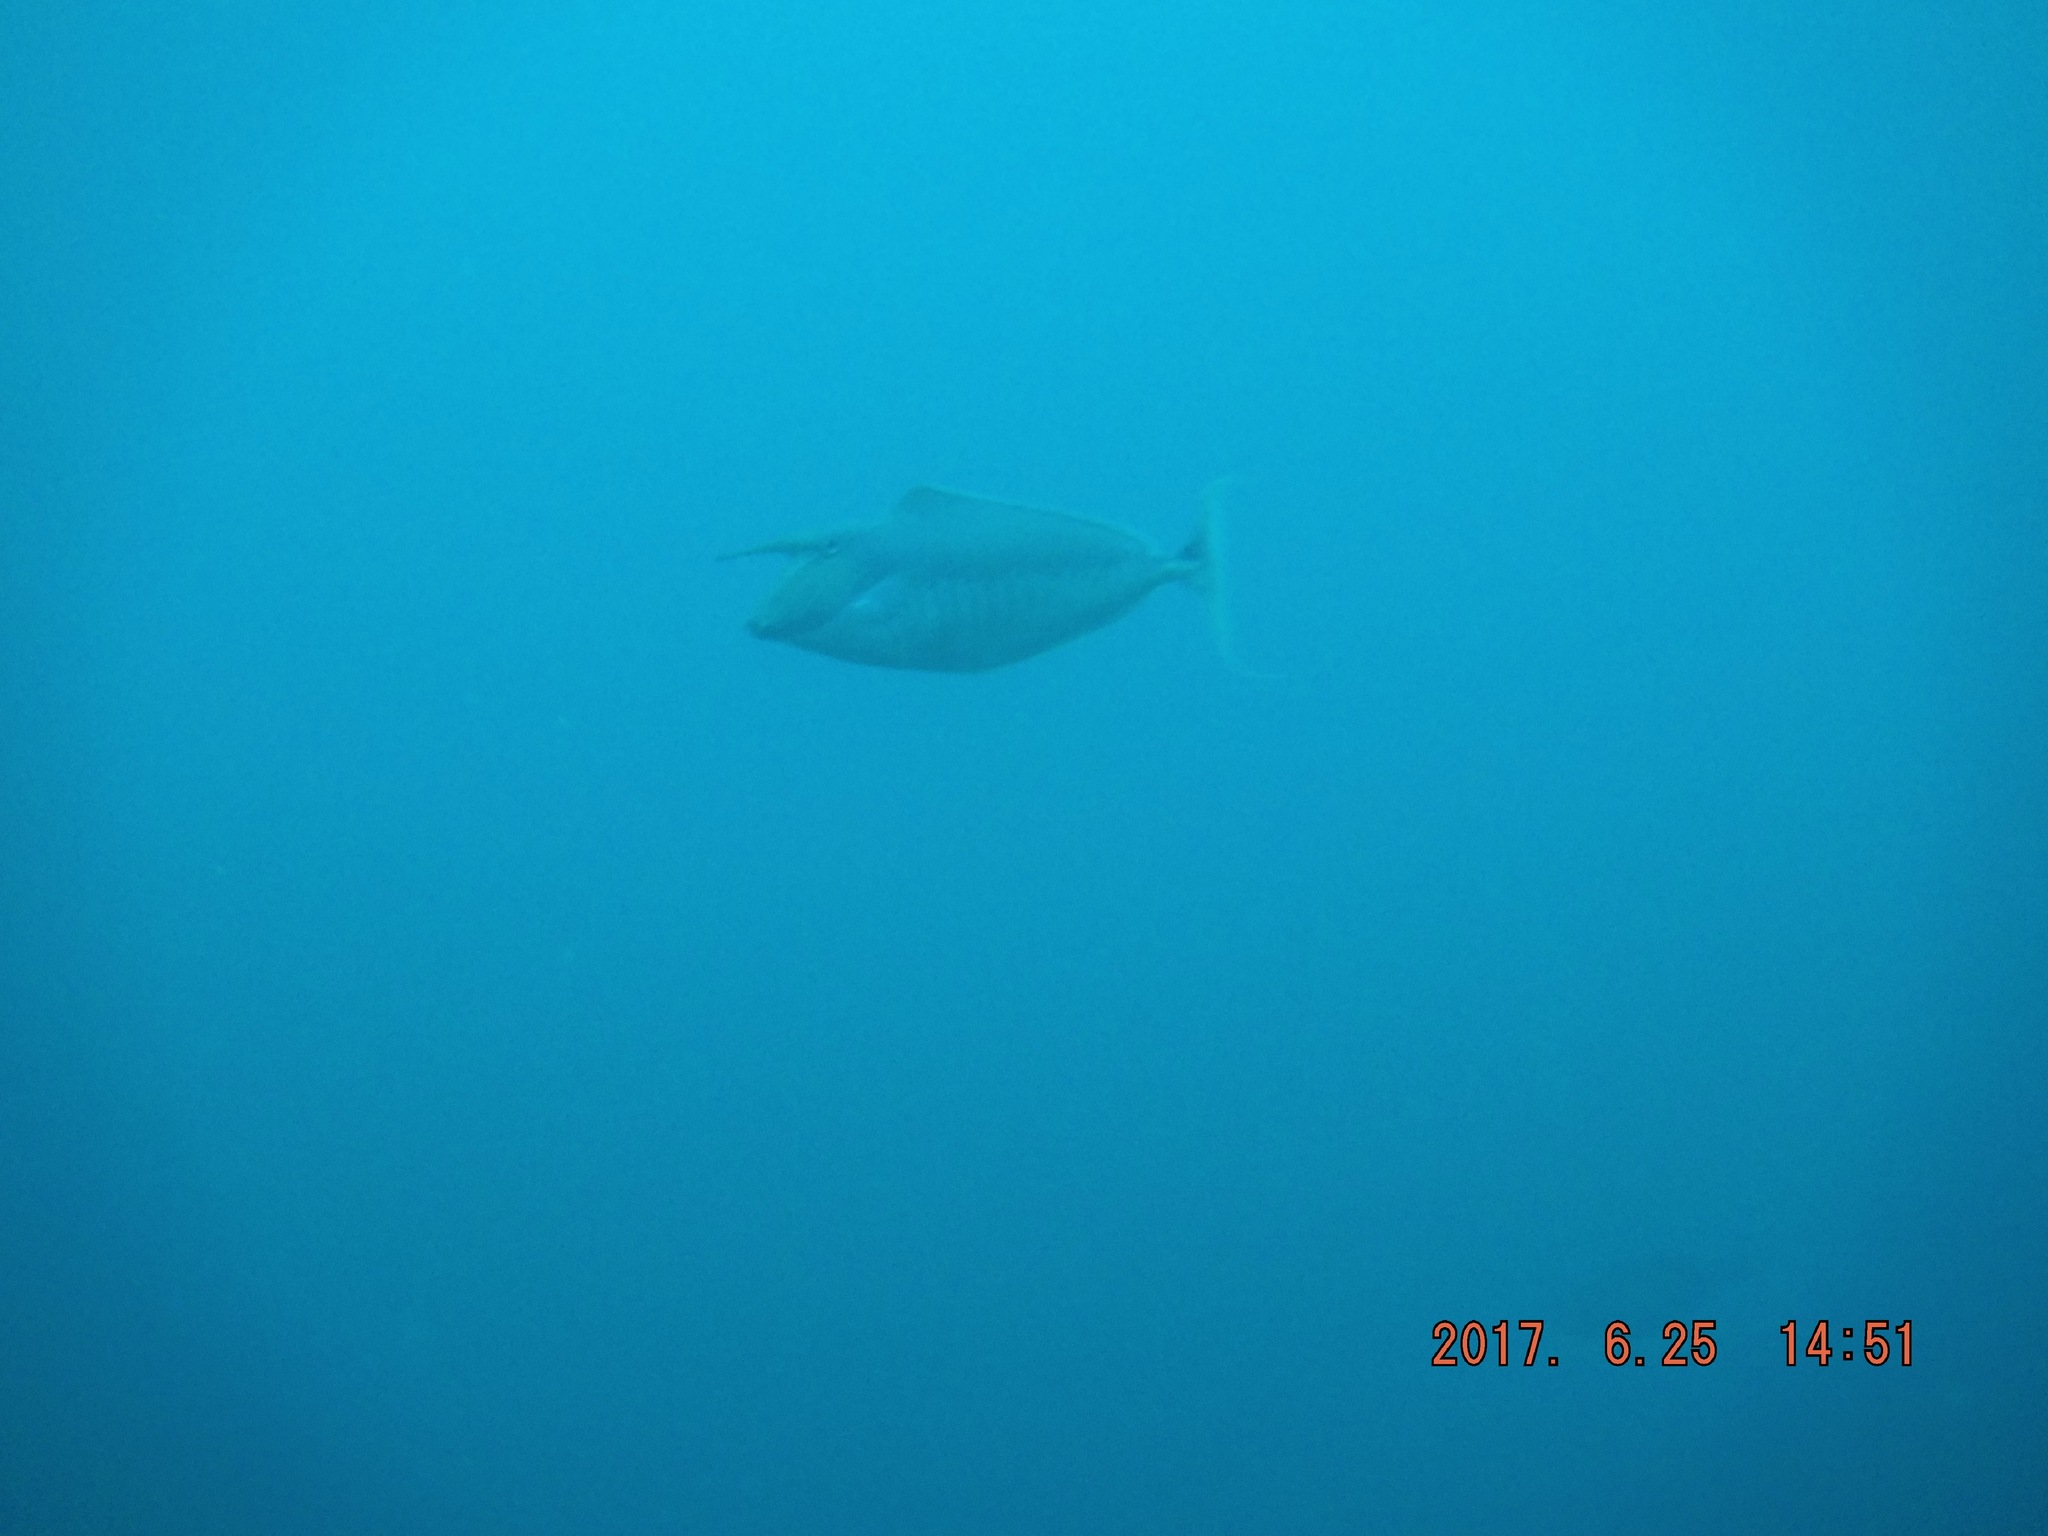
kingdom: Animalia
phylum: Chordata
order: Perciformes
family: Acanthuridae
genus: Naso
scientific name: Naso brachycentron
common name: Humpback unicornfish
